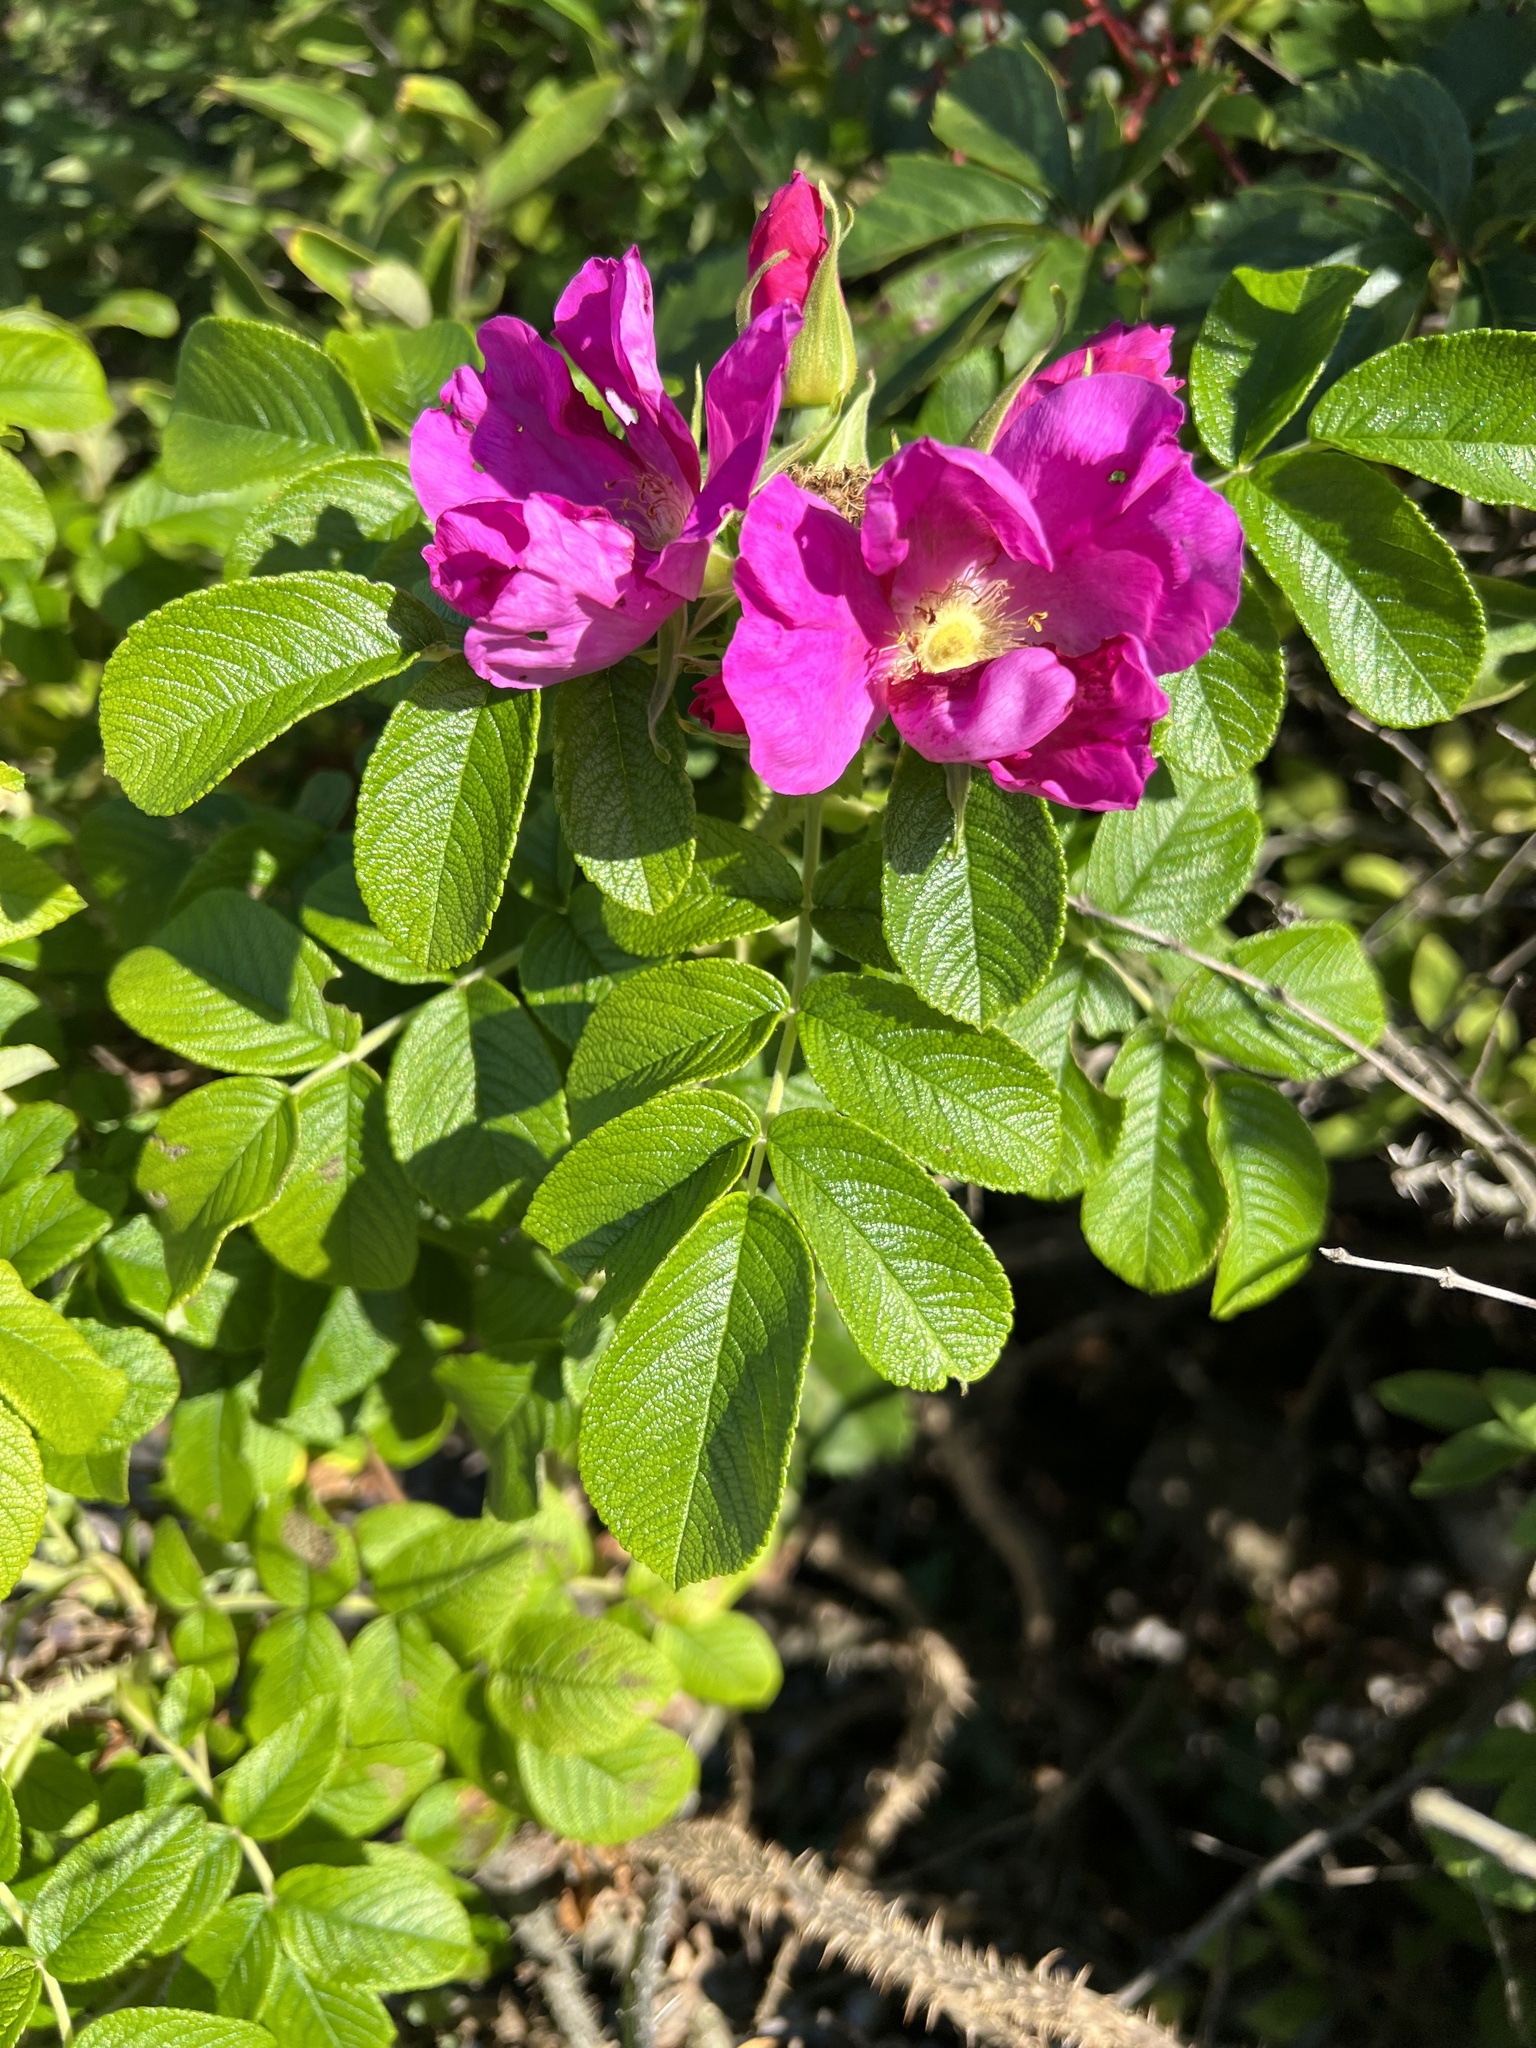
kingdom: Plantae
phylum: Tracheophyta
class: Magnoliopsida
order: Rosales
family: Rosaceae
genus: Rosa
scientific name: Rosa rugosa
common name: Japanese rose
